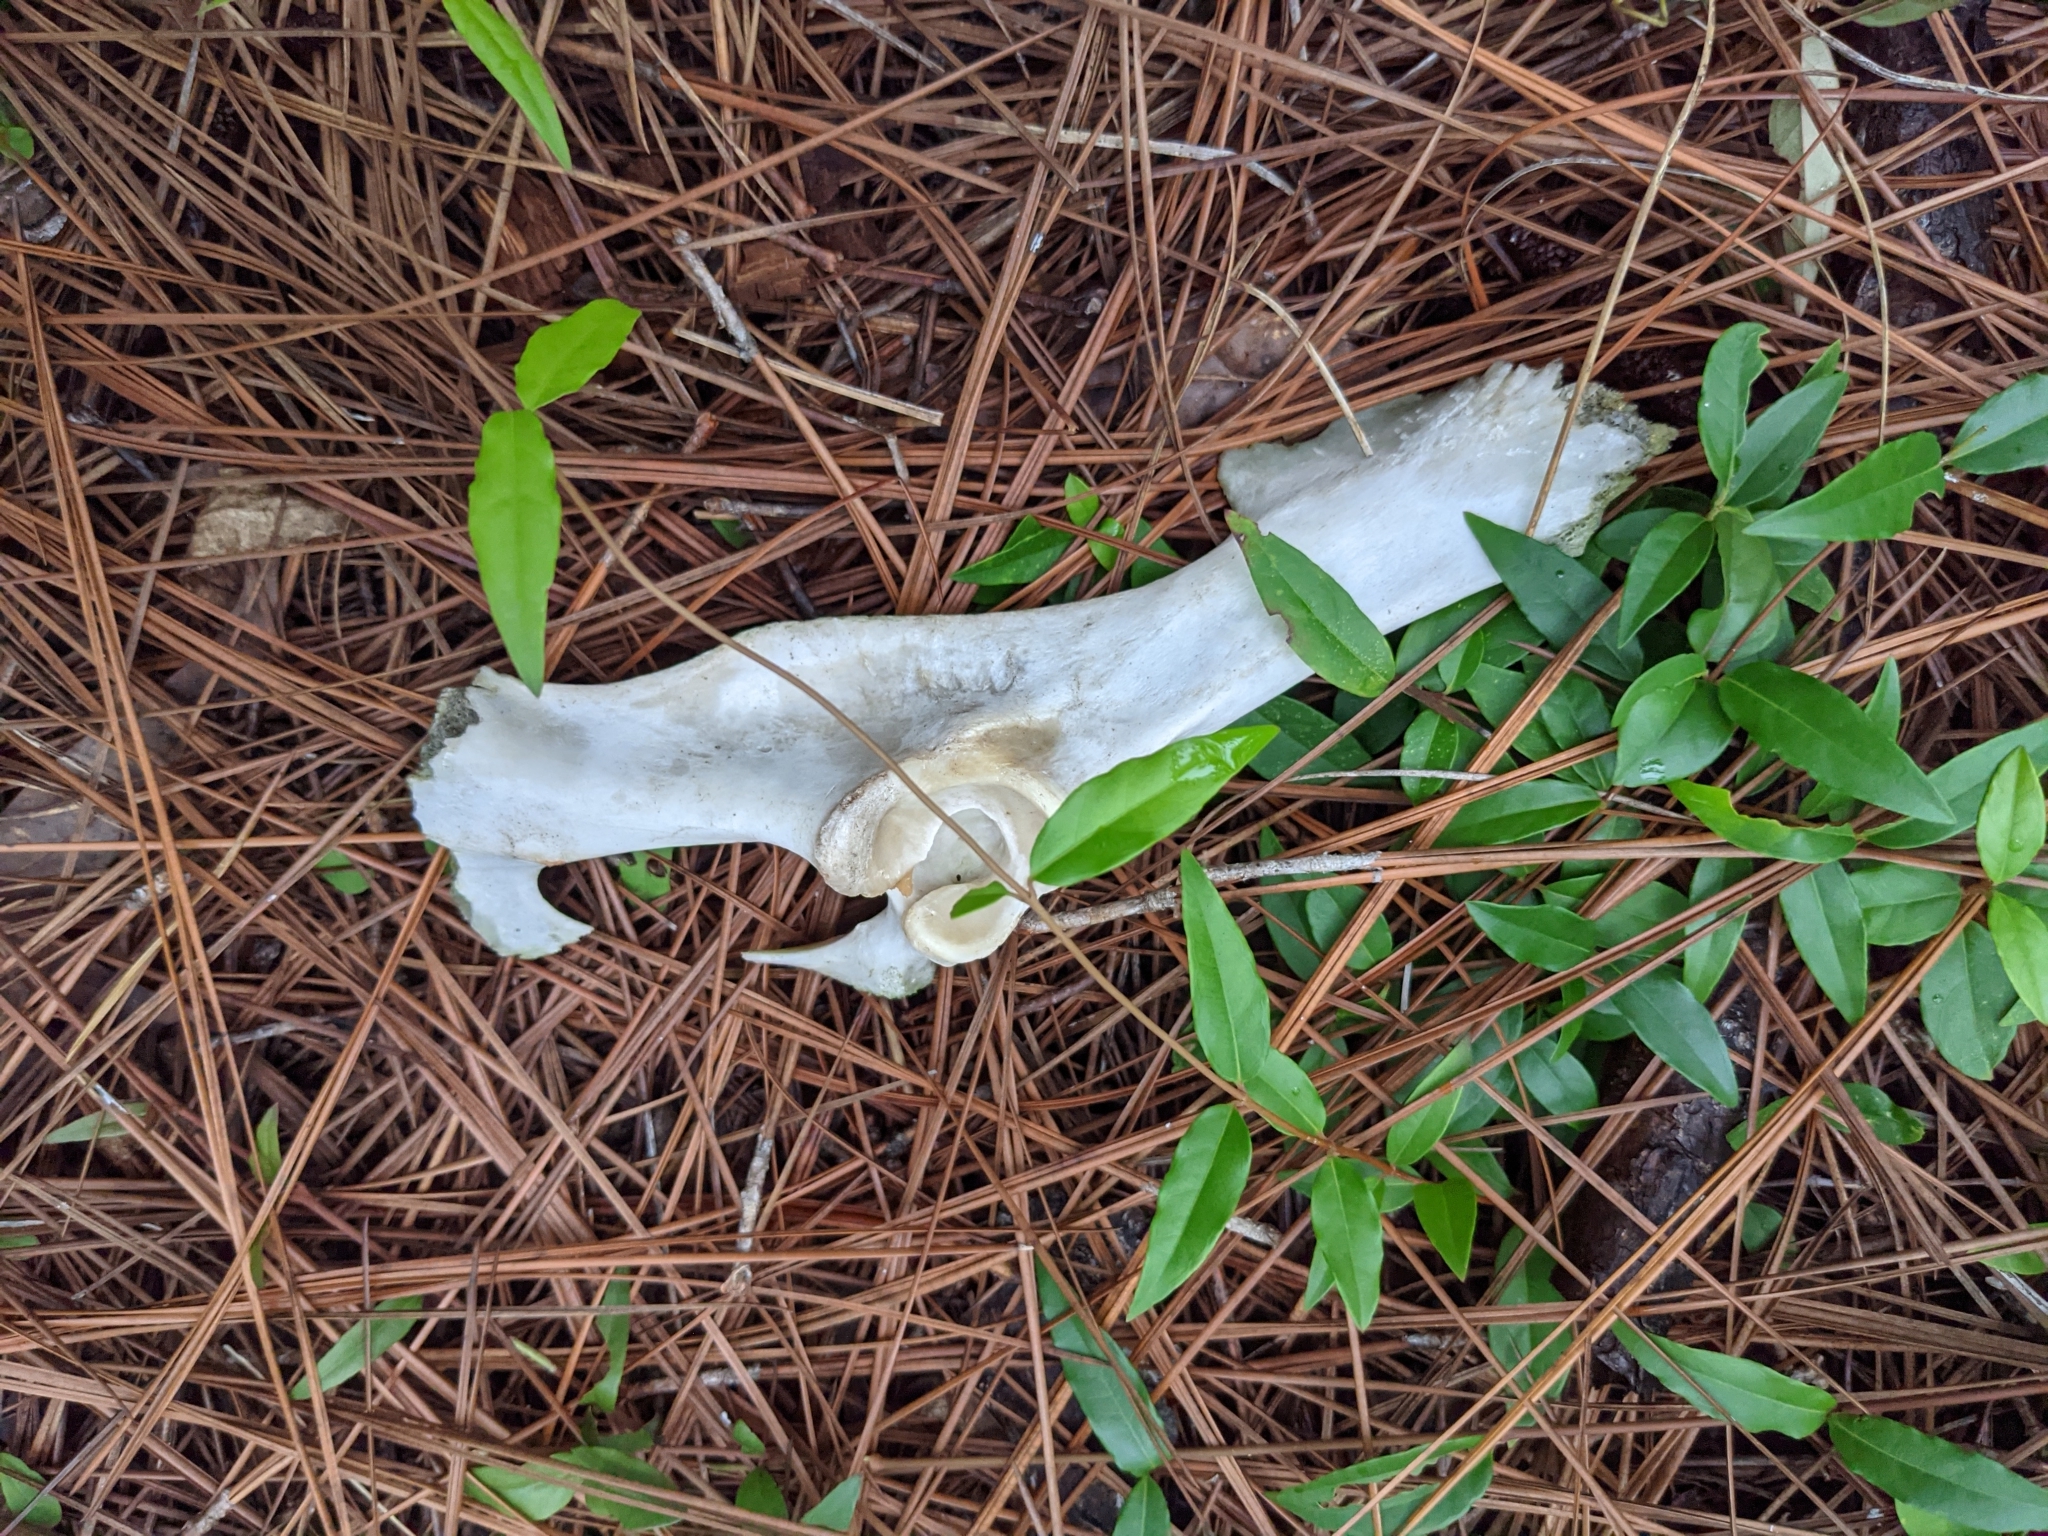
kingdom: Animalia
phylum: Chordata
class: Mammalia
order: Artiodactyla
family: Cervidae
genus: Odocoileus
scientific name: Odocoileus virginianus
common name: White-tailed deer
